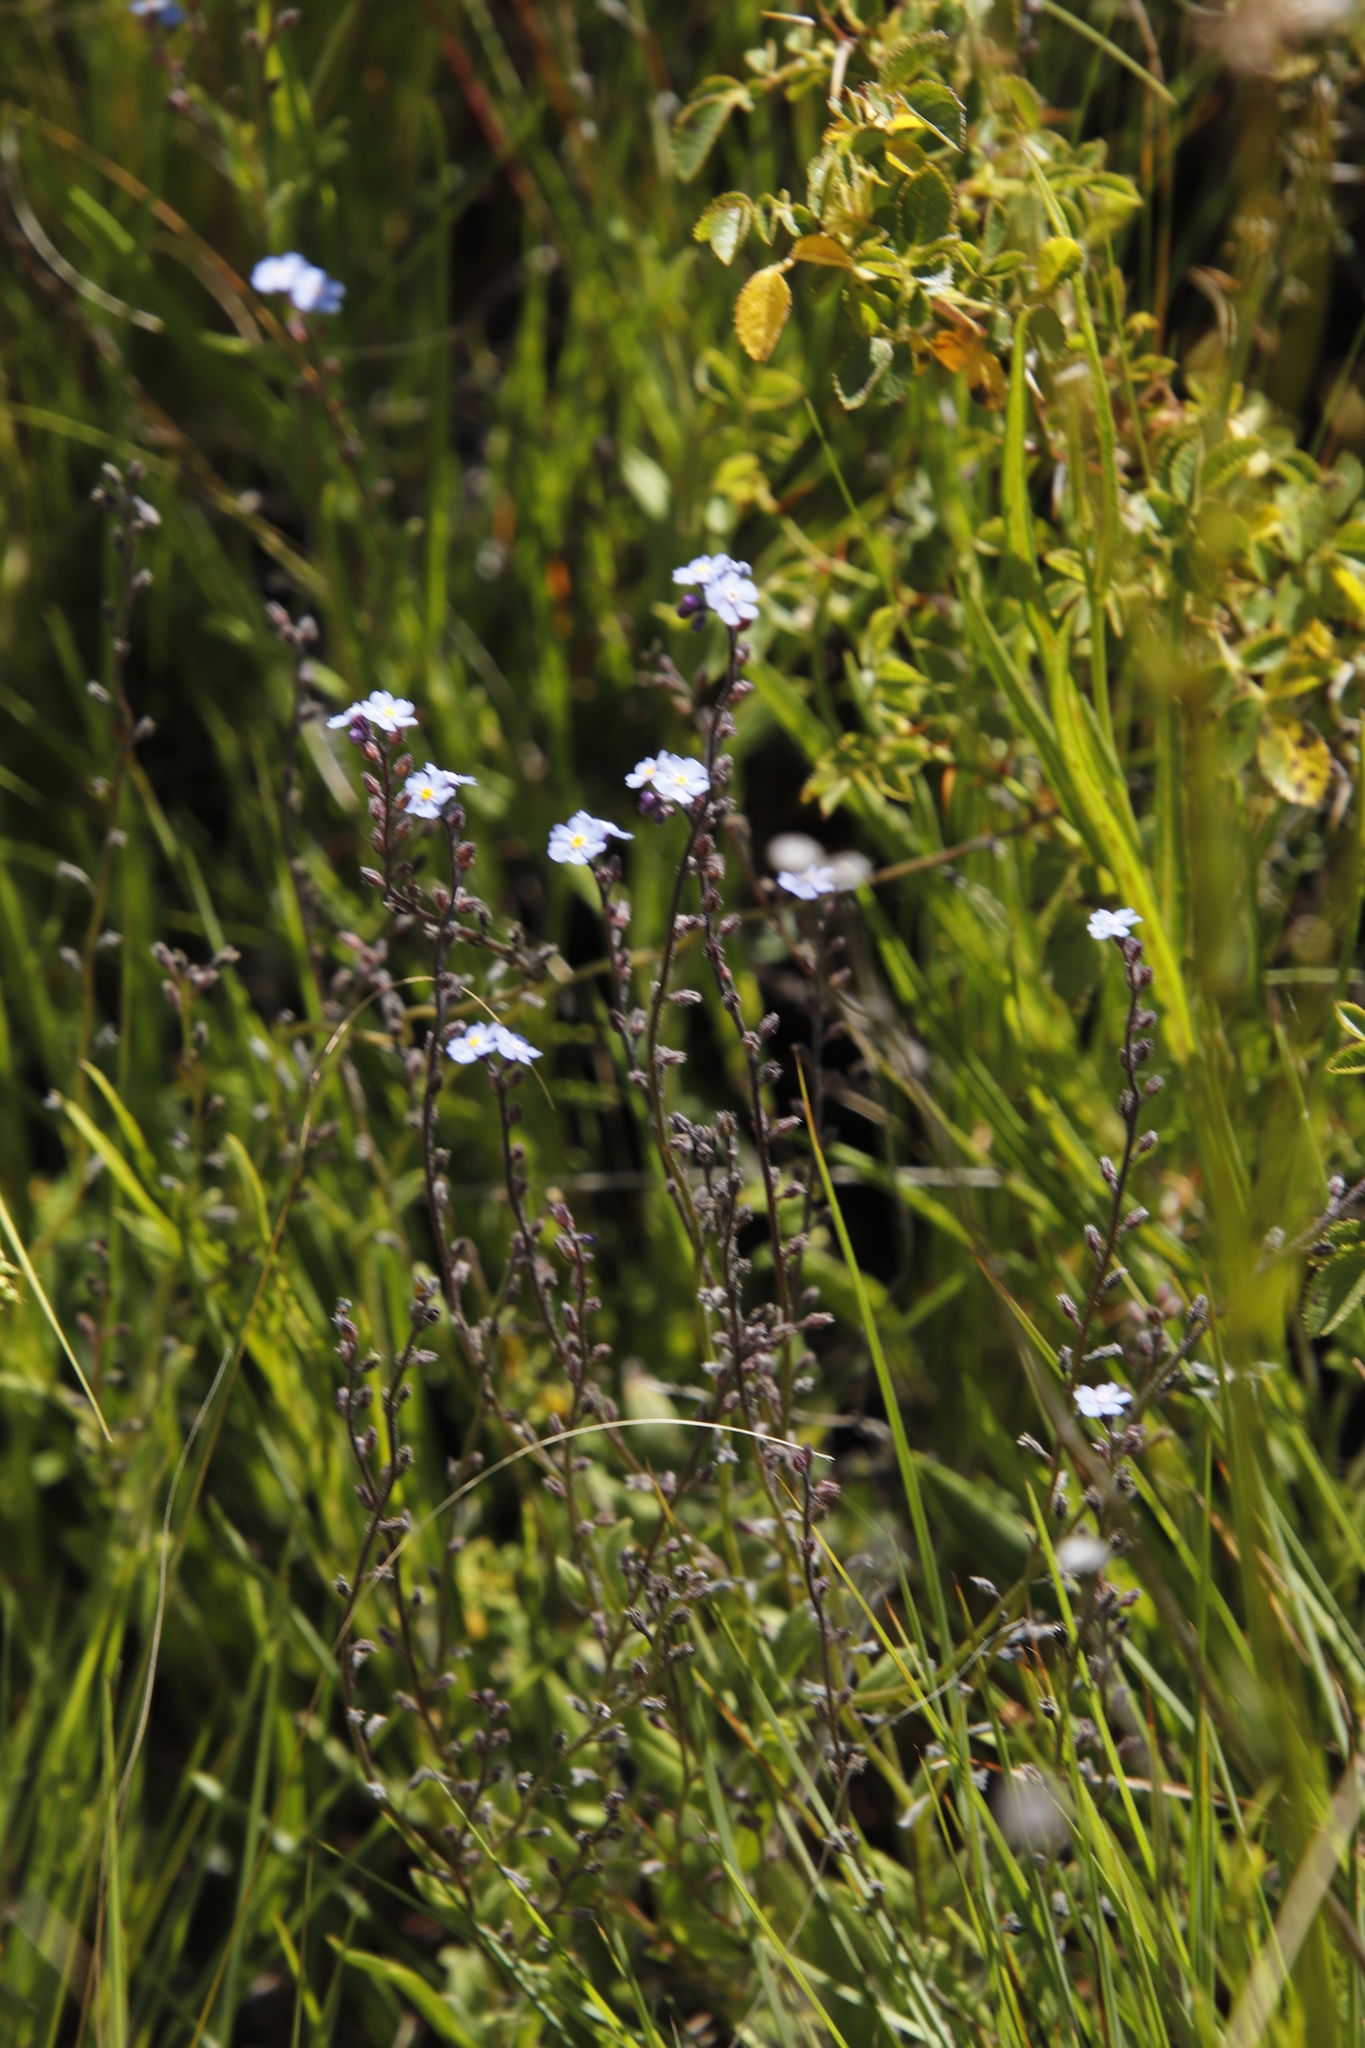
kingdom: Plantae
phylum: Tracheophyta
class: Magnoliopsida
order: Boraginales
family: Boraginaceae
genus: Myosotis
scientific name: Myosotis semiamplexicaulis
